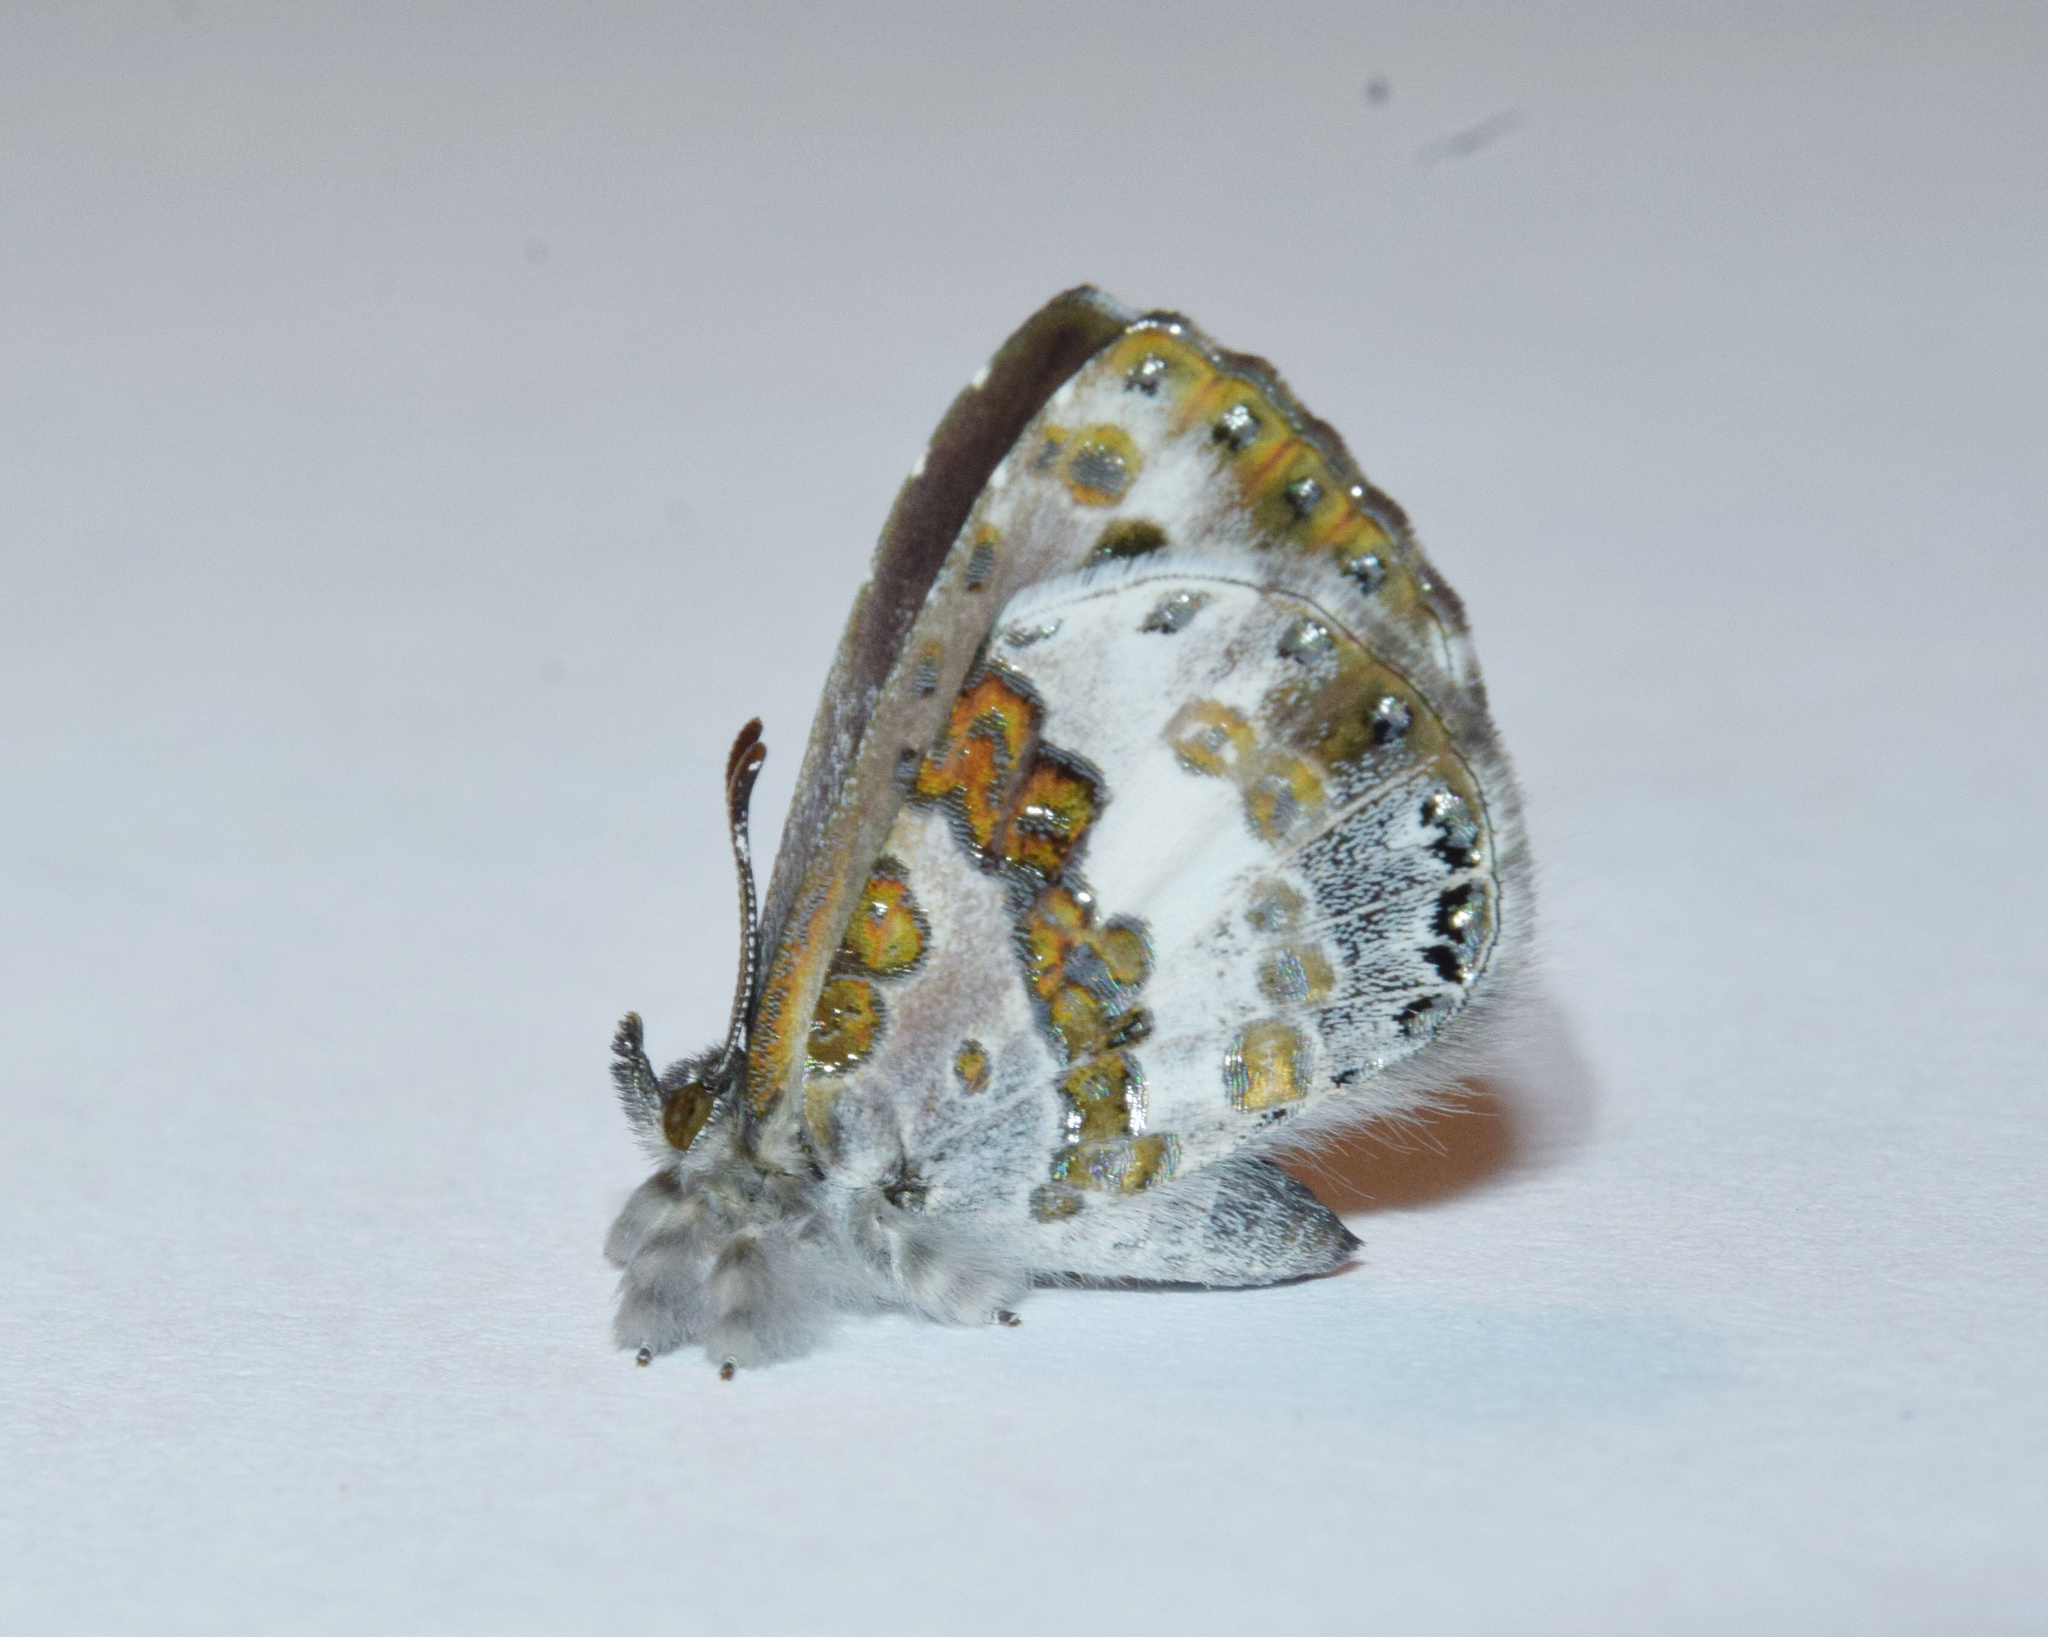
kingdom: Animalia
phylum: Arthropoda
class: Insecta
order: Lepidoptera
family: Lycaenidae
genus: Lachnocnema
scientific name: Lachnocnema bibulus
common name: Common woolly legs
